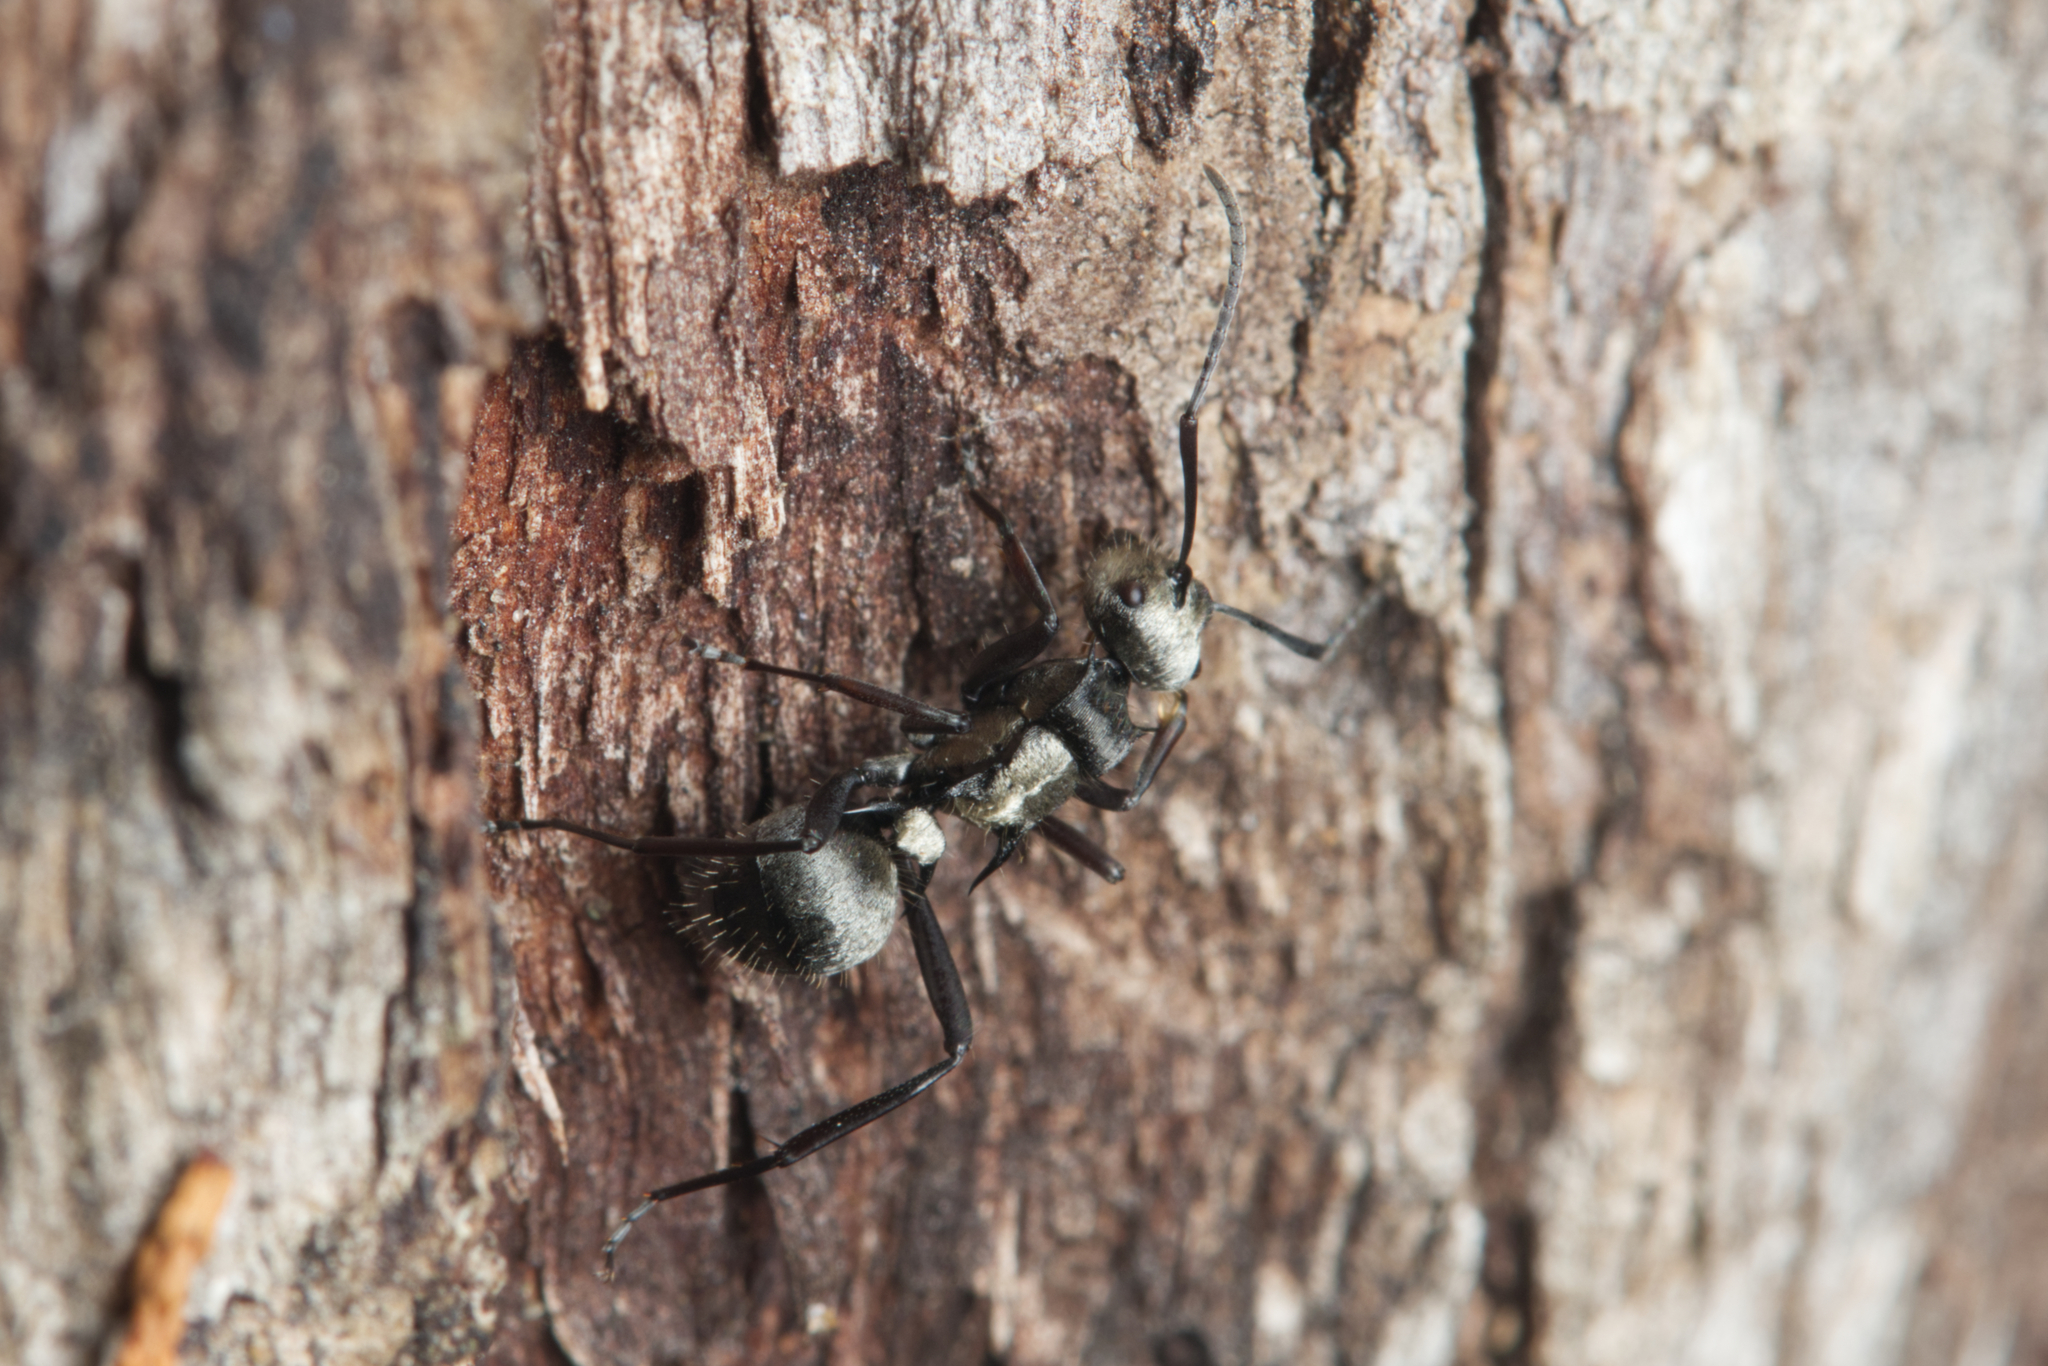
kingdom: Animalia
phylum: Arthropoda
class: Insecta
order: Hymenoptera
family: Formicidae
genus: Polyrhachis
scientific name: Polyrhachis daemeli
